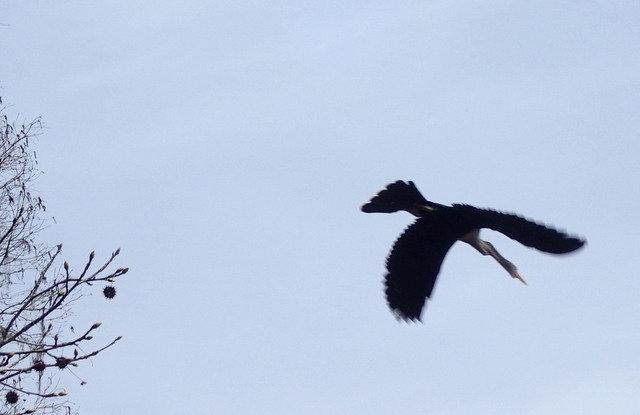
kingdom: Animalia
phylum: Chordata
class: Aves
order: Suliformes
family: Anhingidae
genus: Anhinga
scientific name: Anhinga anhinga
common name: Anhinga
